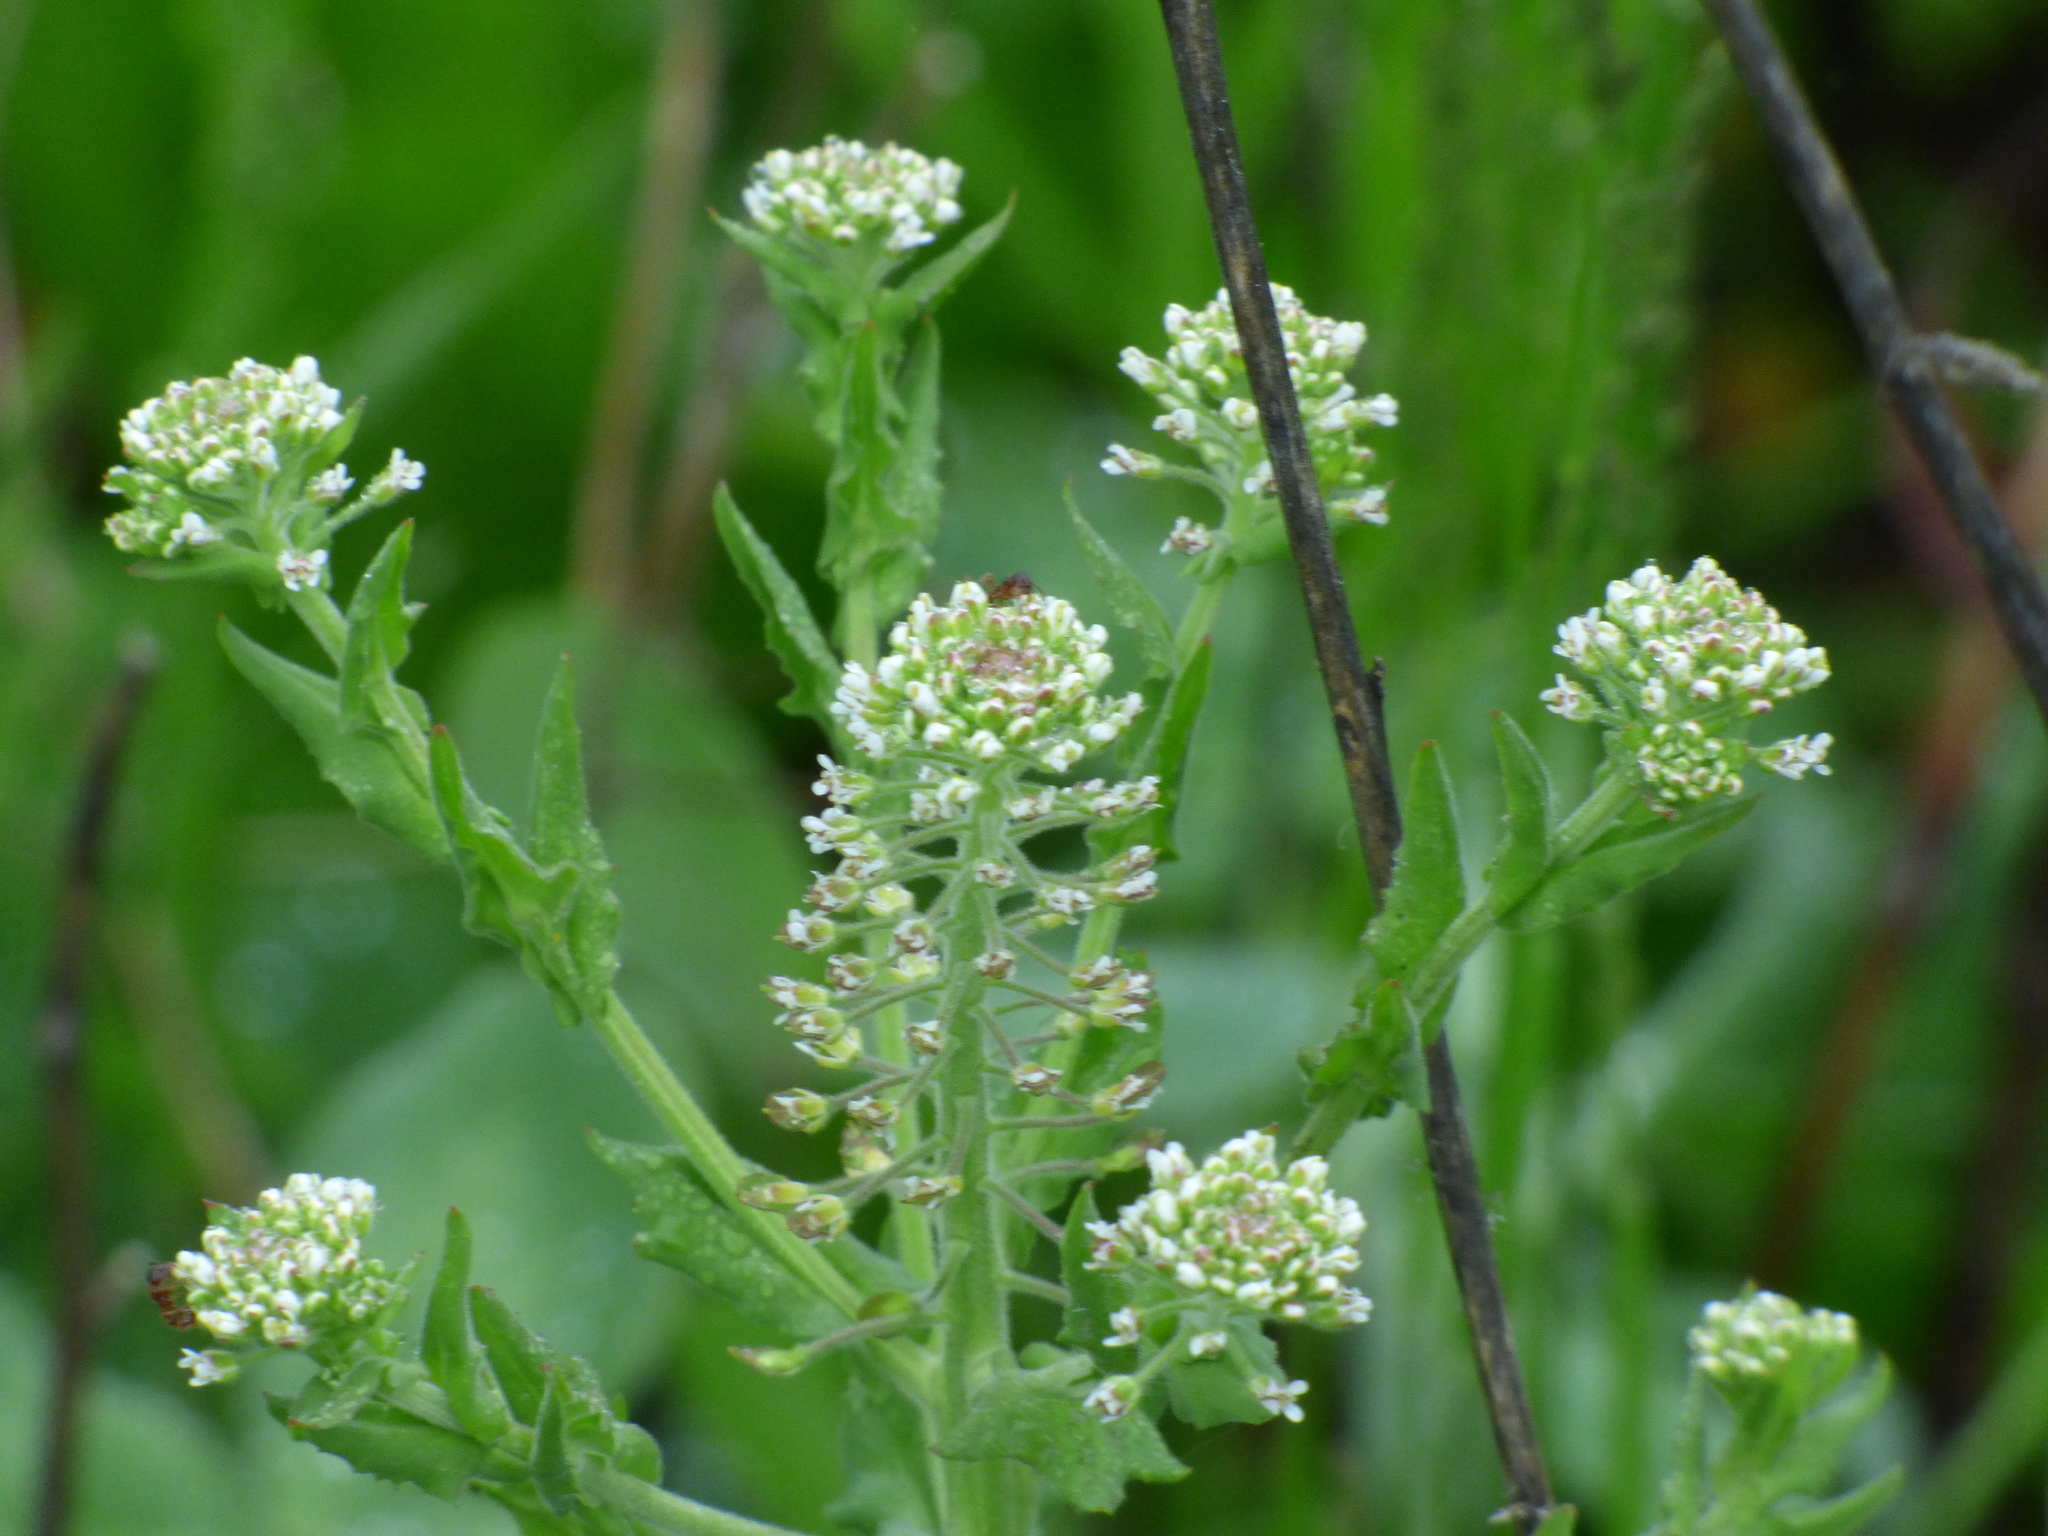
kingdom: Plantae
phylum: Tracheophyta
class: Magnoliopsida
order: Brassicales
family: Brassicaceae
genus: Lepidium
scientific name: Lepidium campestre
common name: Field pepperwort
